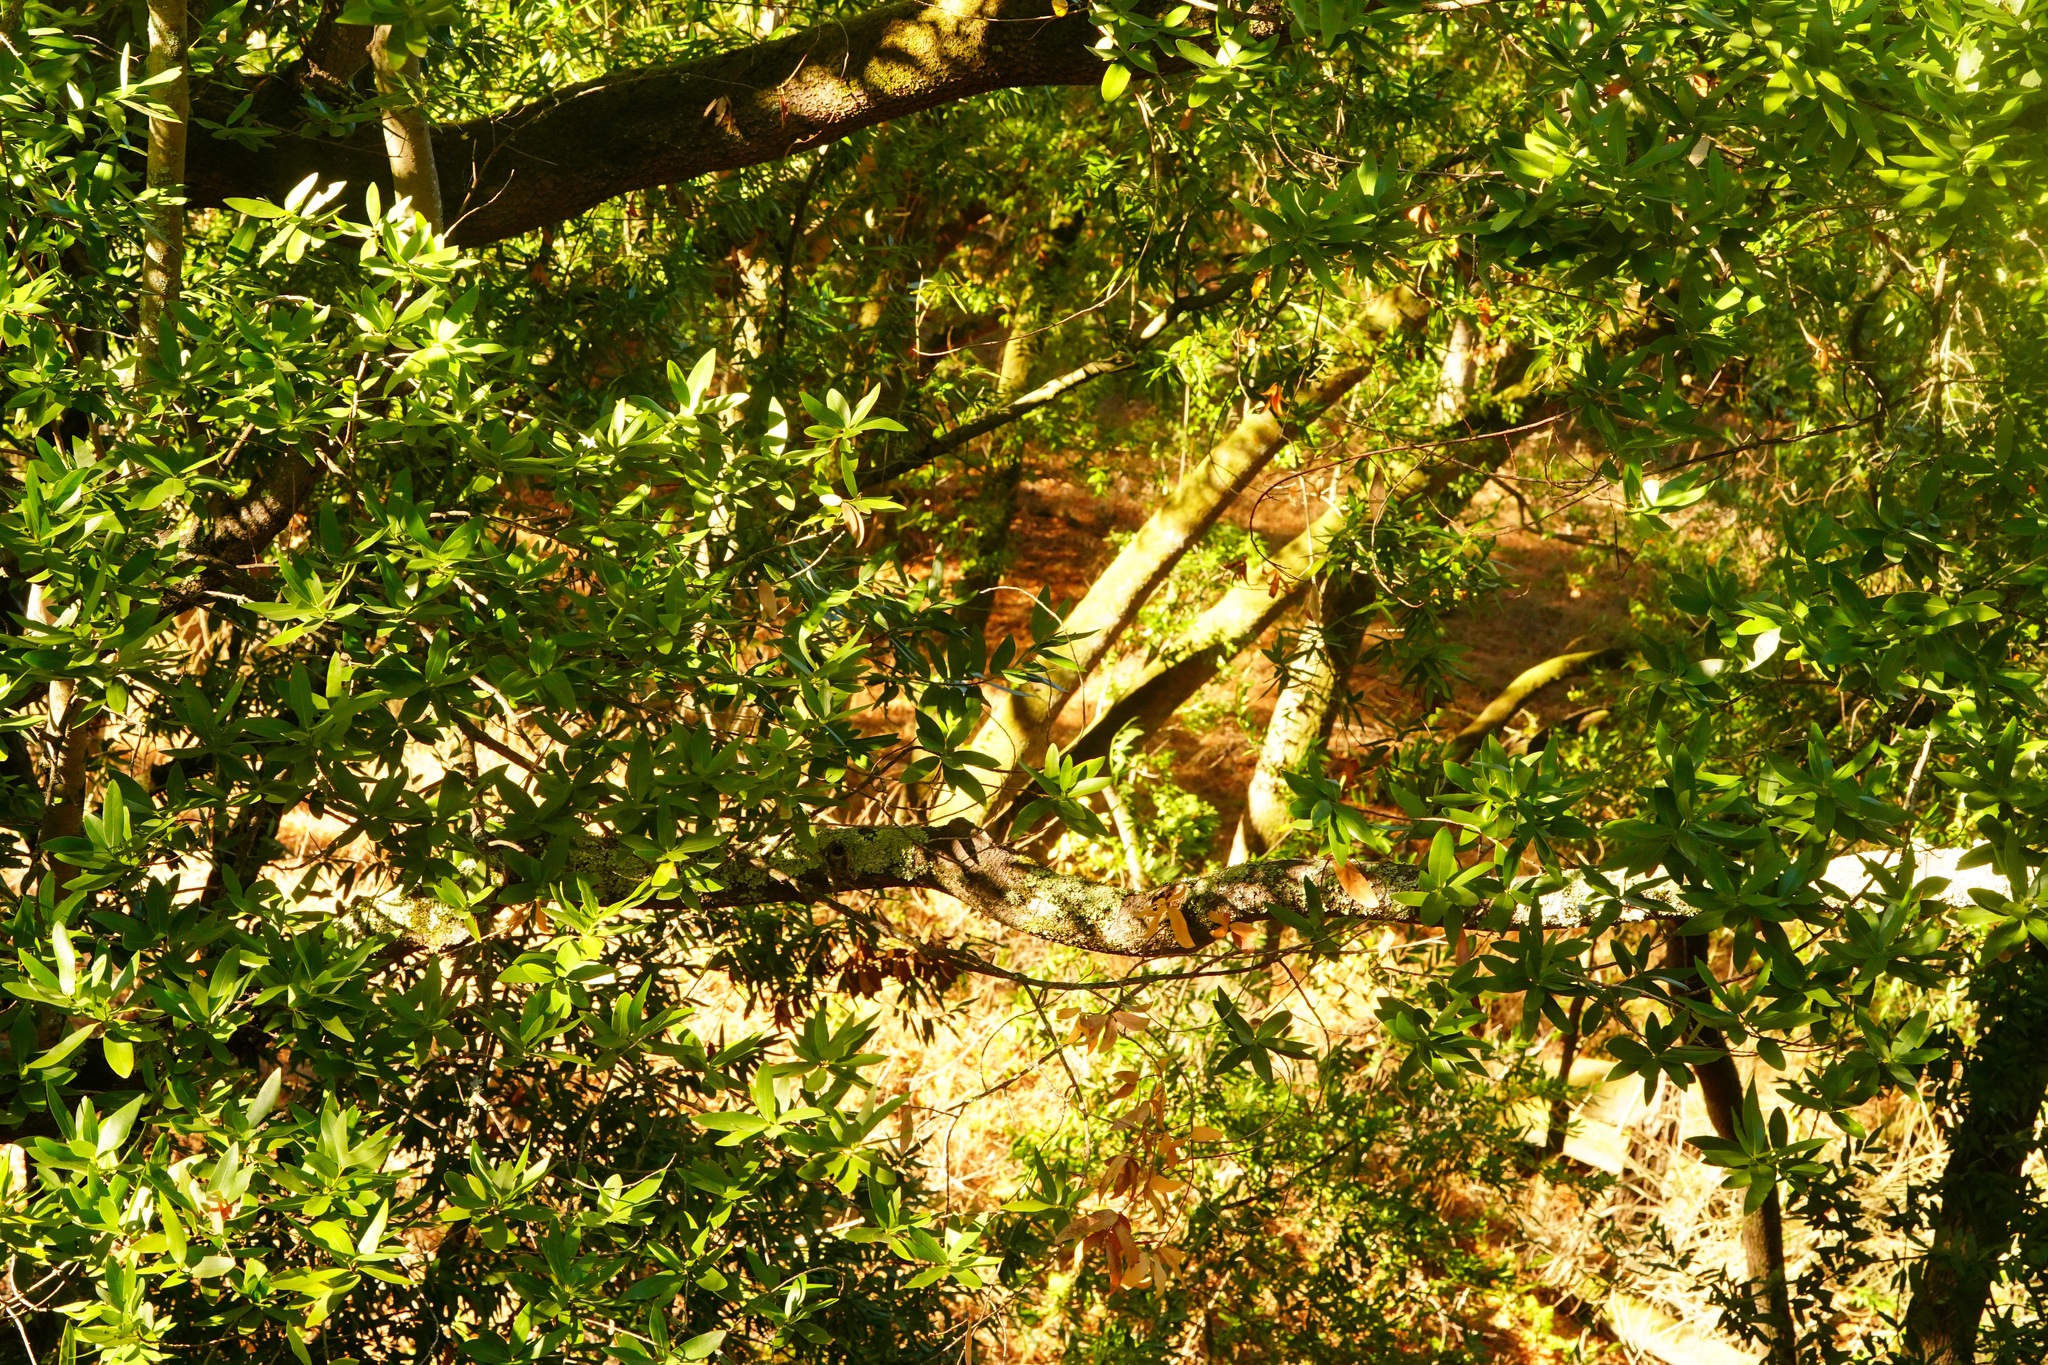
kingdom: Plantae
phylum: Tracheophyta
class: Magnoliopsida
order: Laurales
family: Lauraceae
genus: Umbellularia
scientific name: Umbellularia californica
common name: California bay
